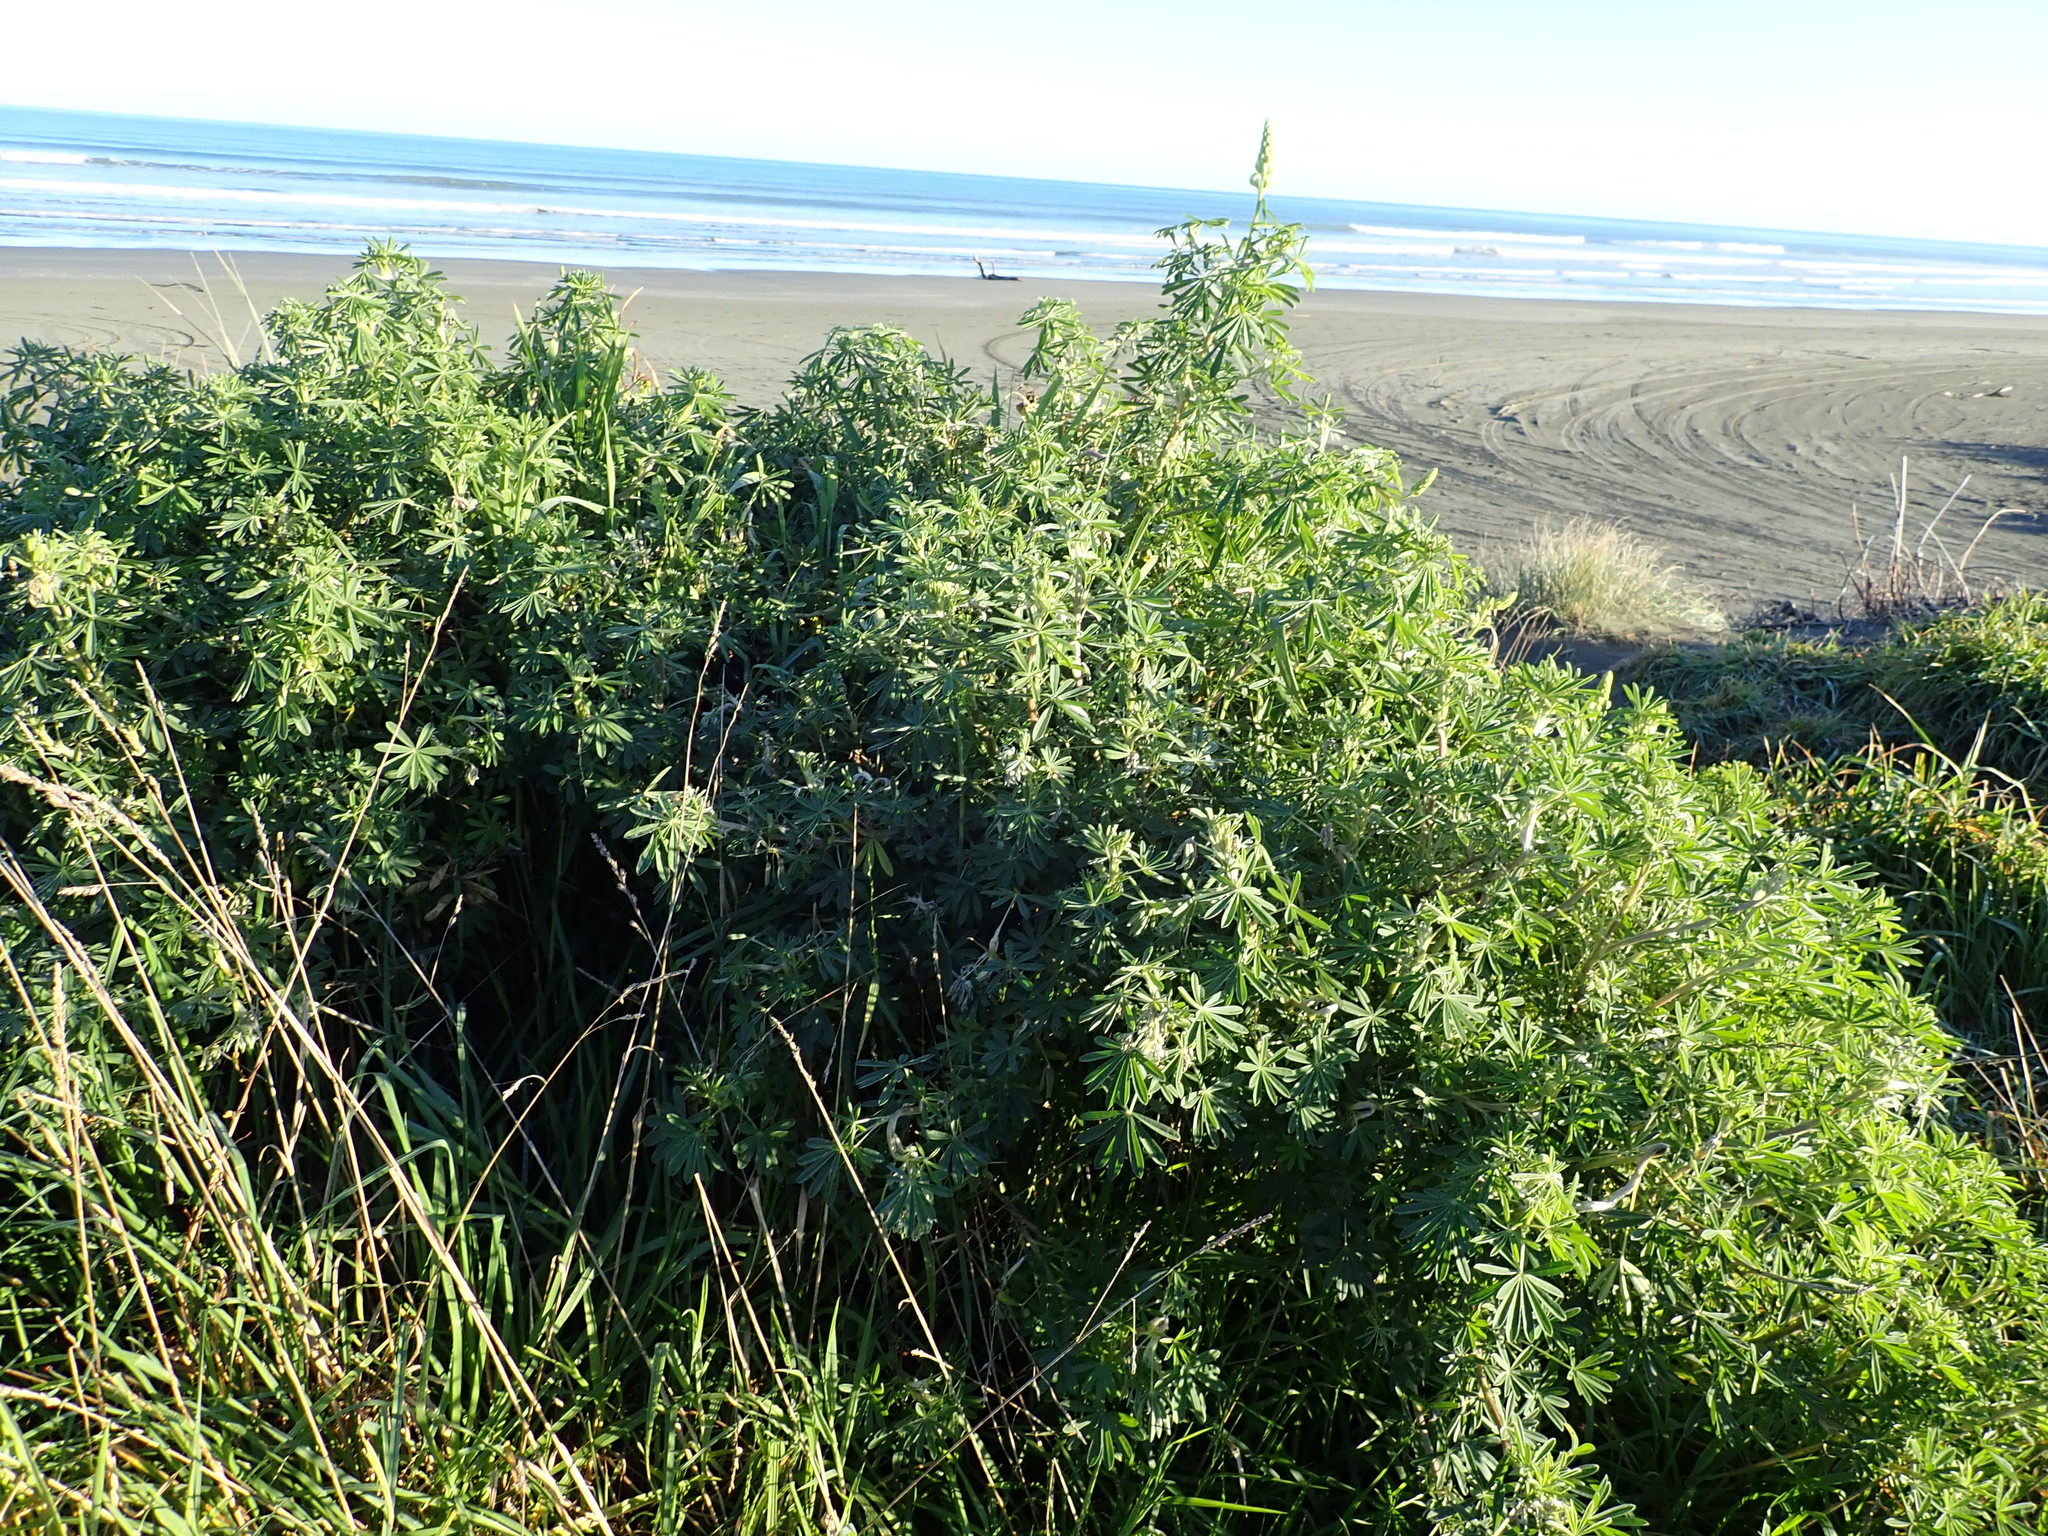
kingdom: Plantae
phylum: Tracheophyta
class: Magnoliopsida
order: Fabales
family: Fabaceae
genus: Lupinus
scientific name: Lupinus arboreus
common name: Yellow bush lupine
